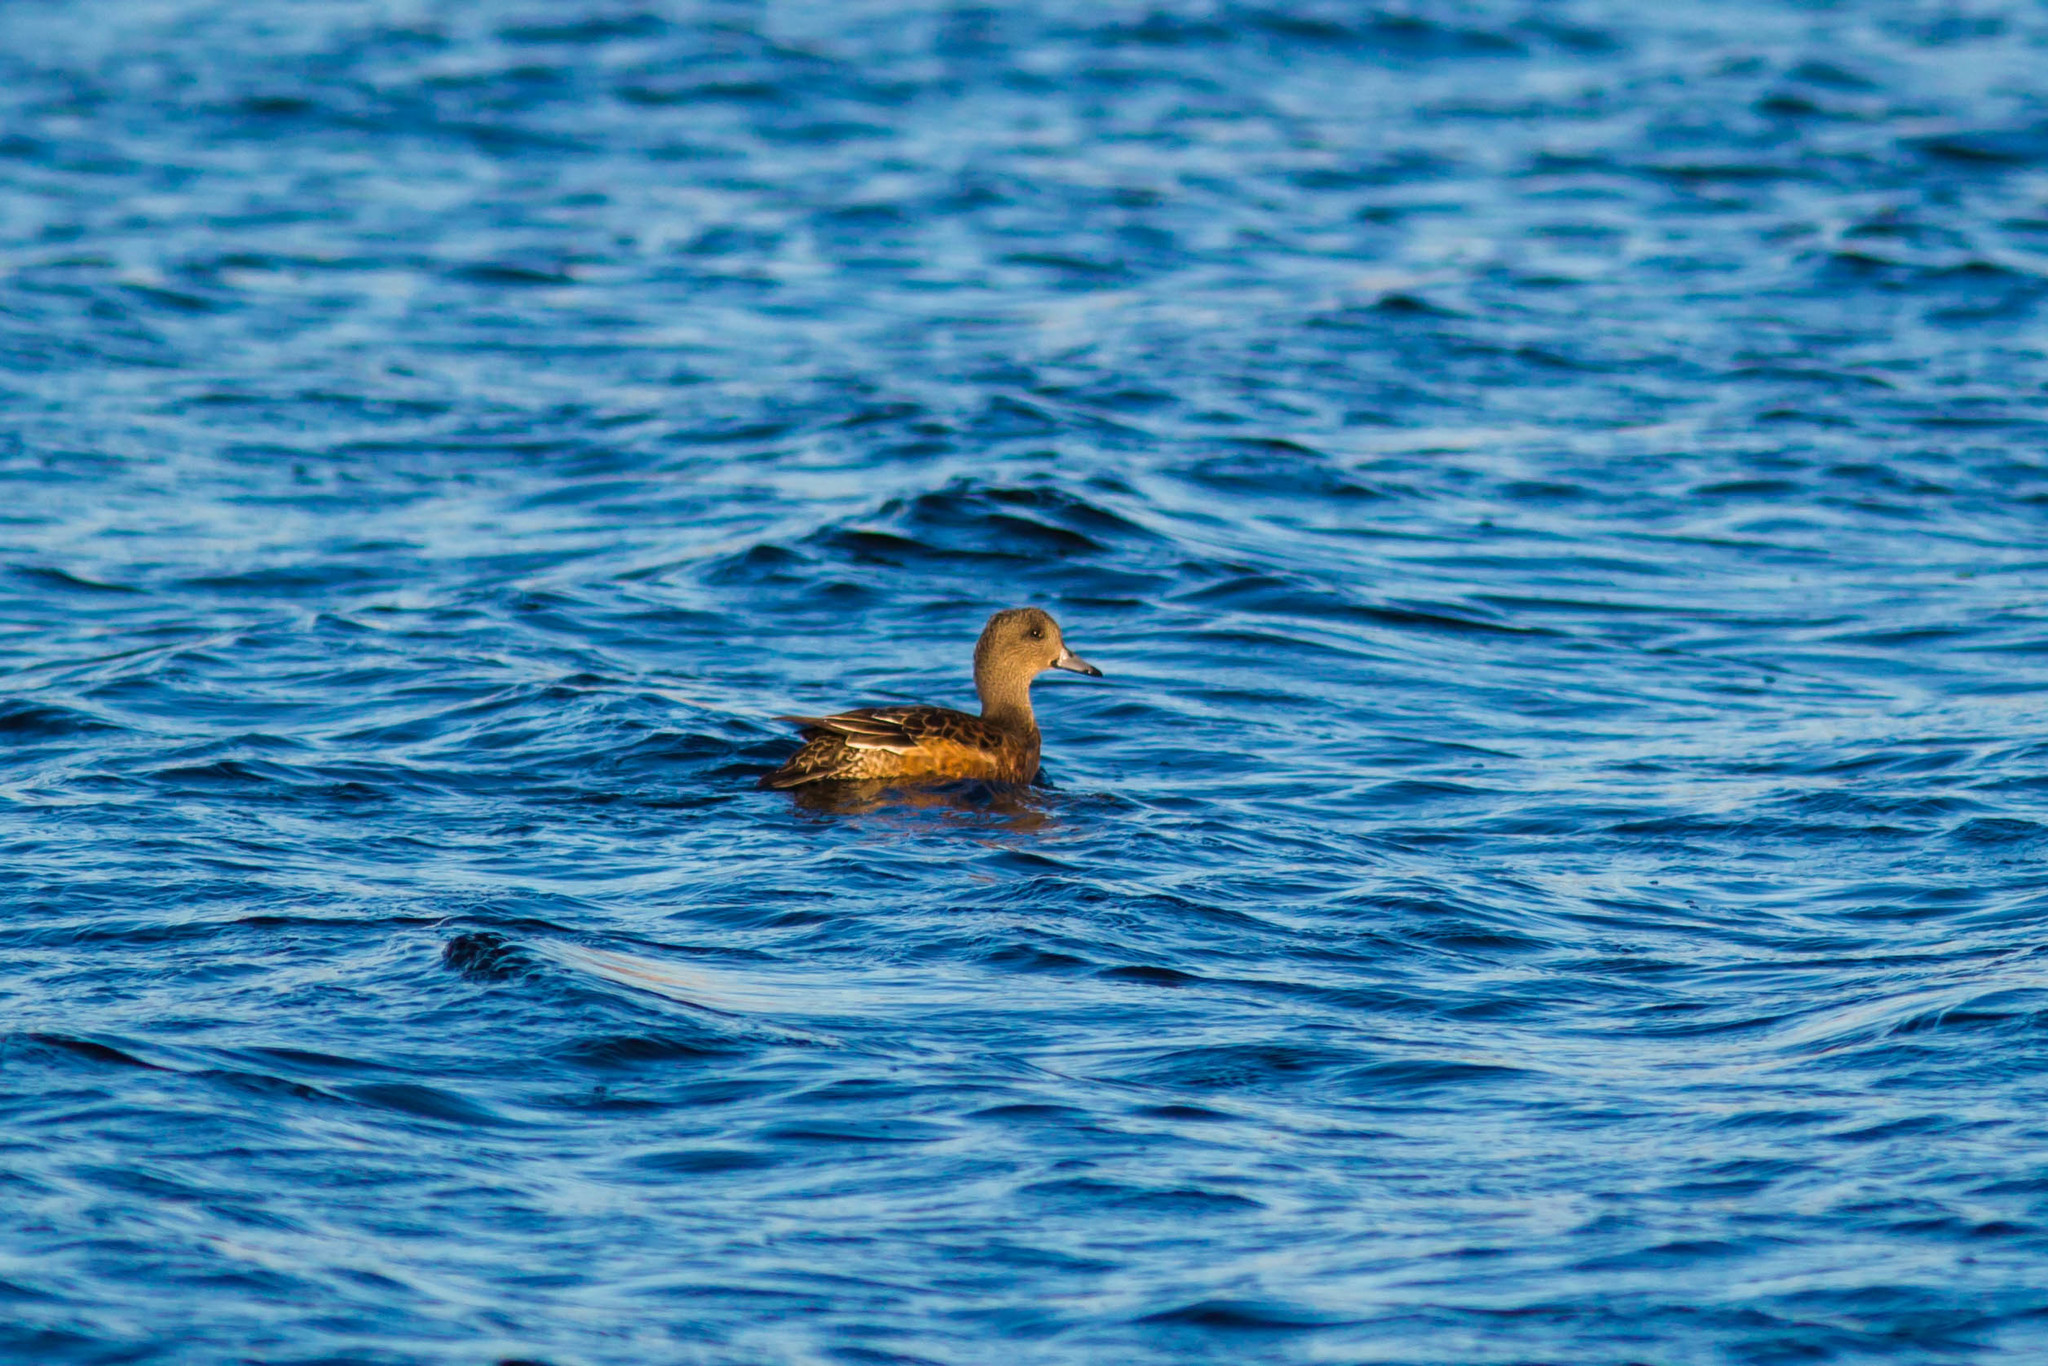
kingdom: Animalia
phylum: Chordata
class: Aves
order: Anseriformes
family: Anatidae
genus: Mareca
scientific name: Mareca americana
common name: American wigeon
